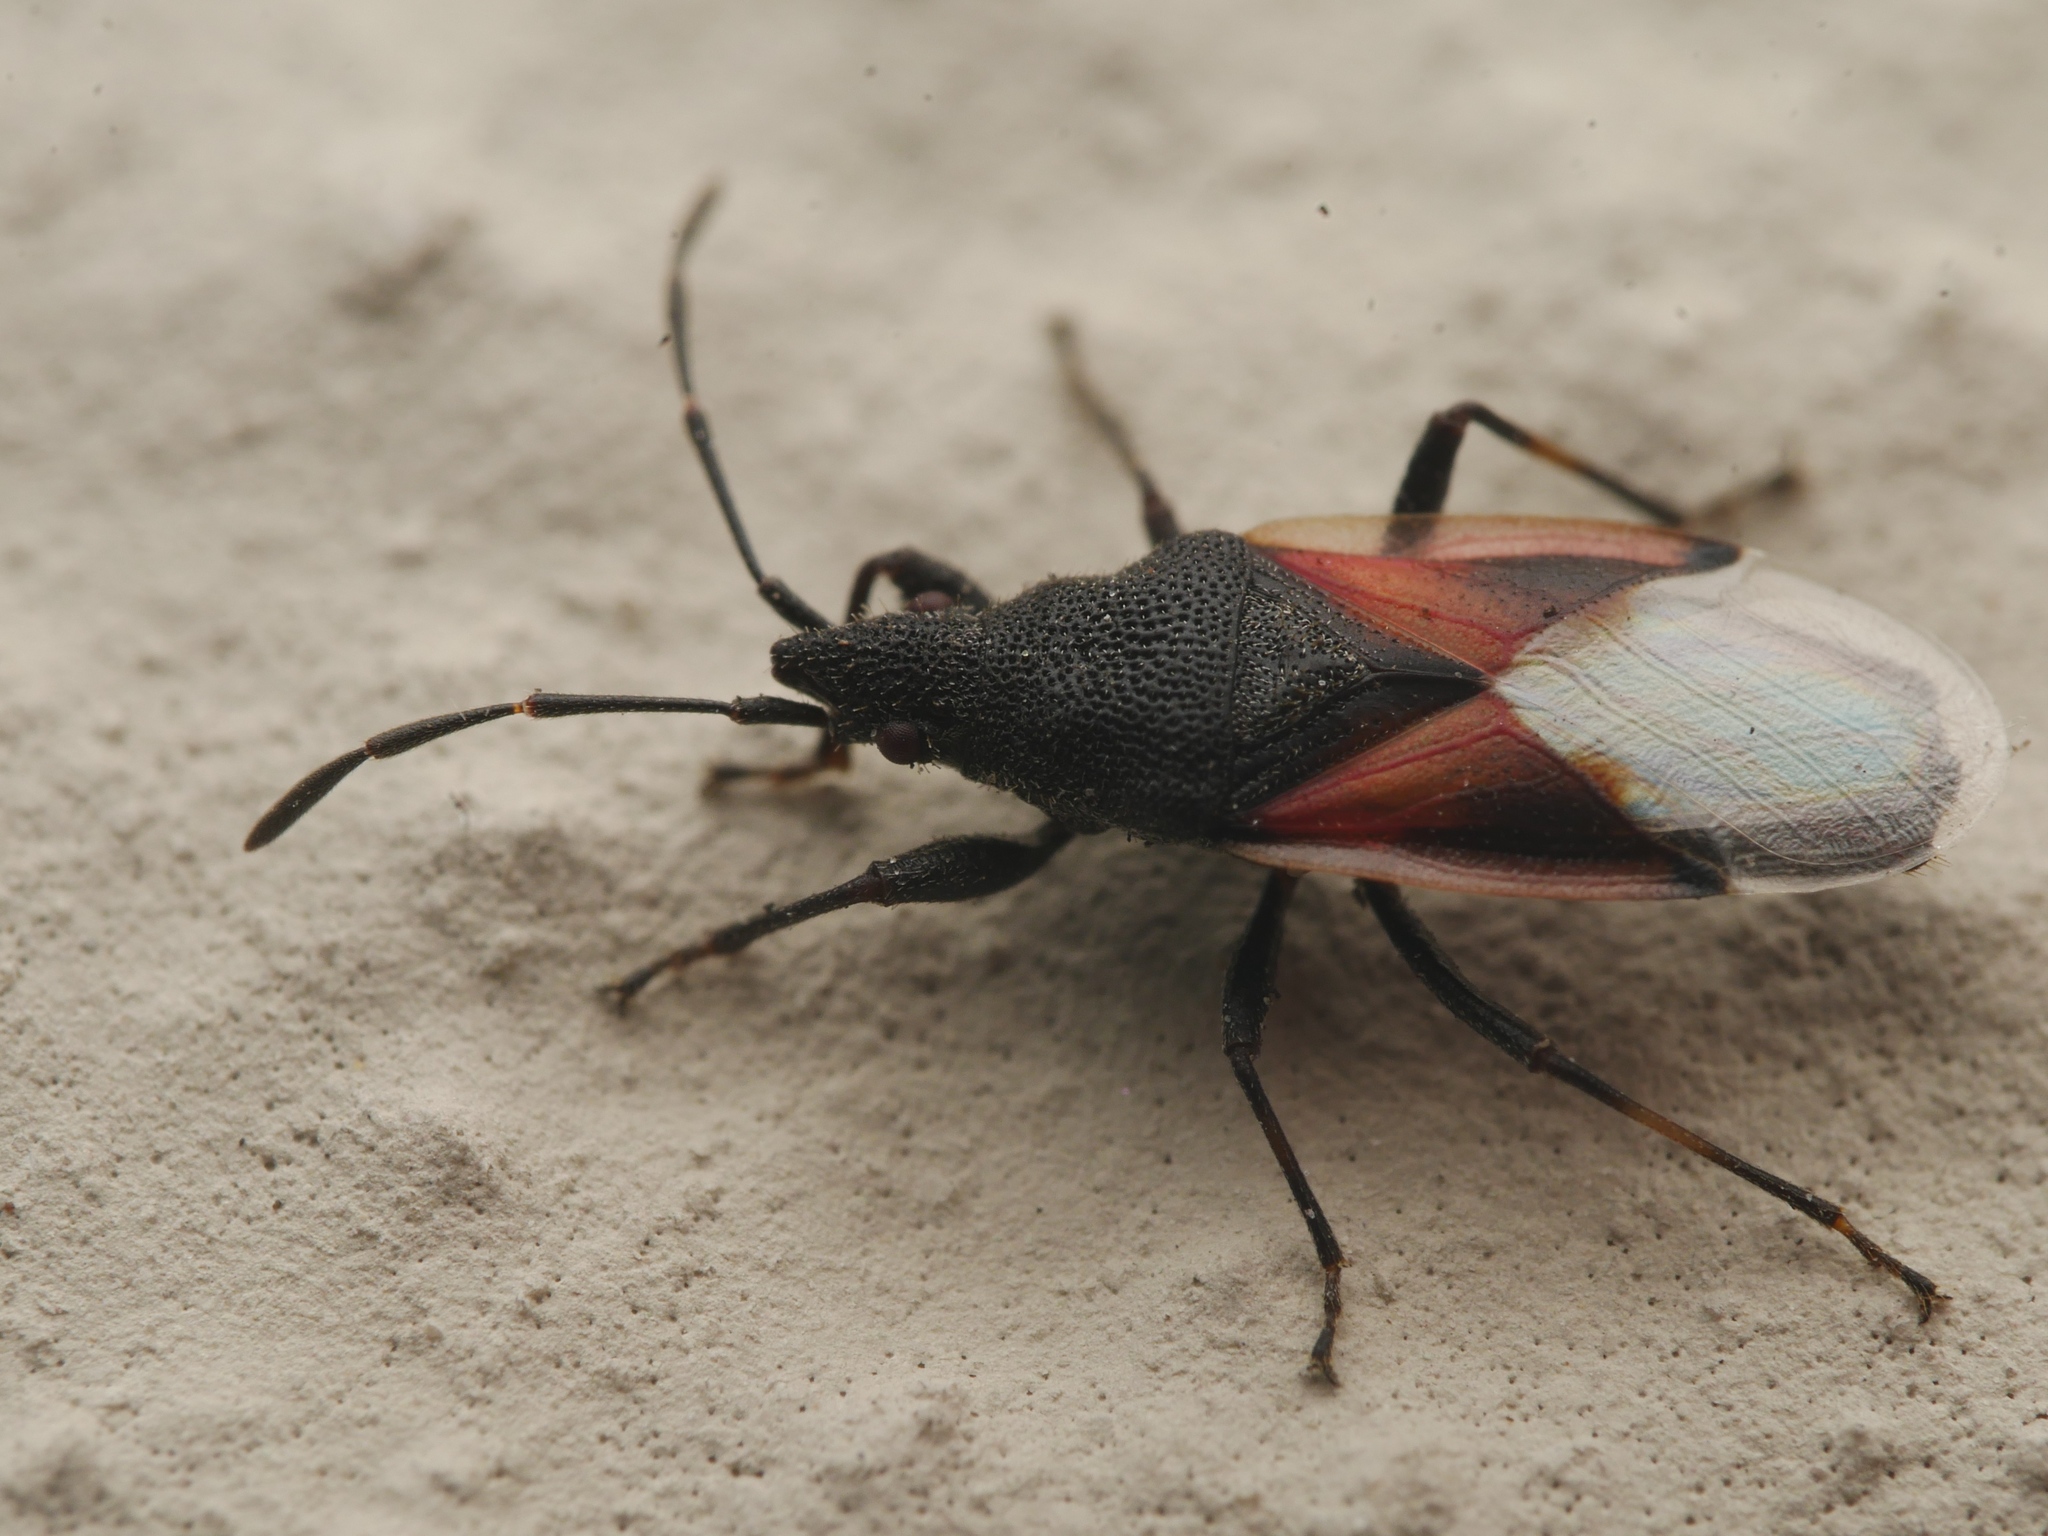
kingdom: Animalia
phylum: Arthropoda
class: Insecta
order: Hemiptera
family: Oxycarenidae
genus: Oxycarenus
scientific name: Oxycarenus lavaterae
